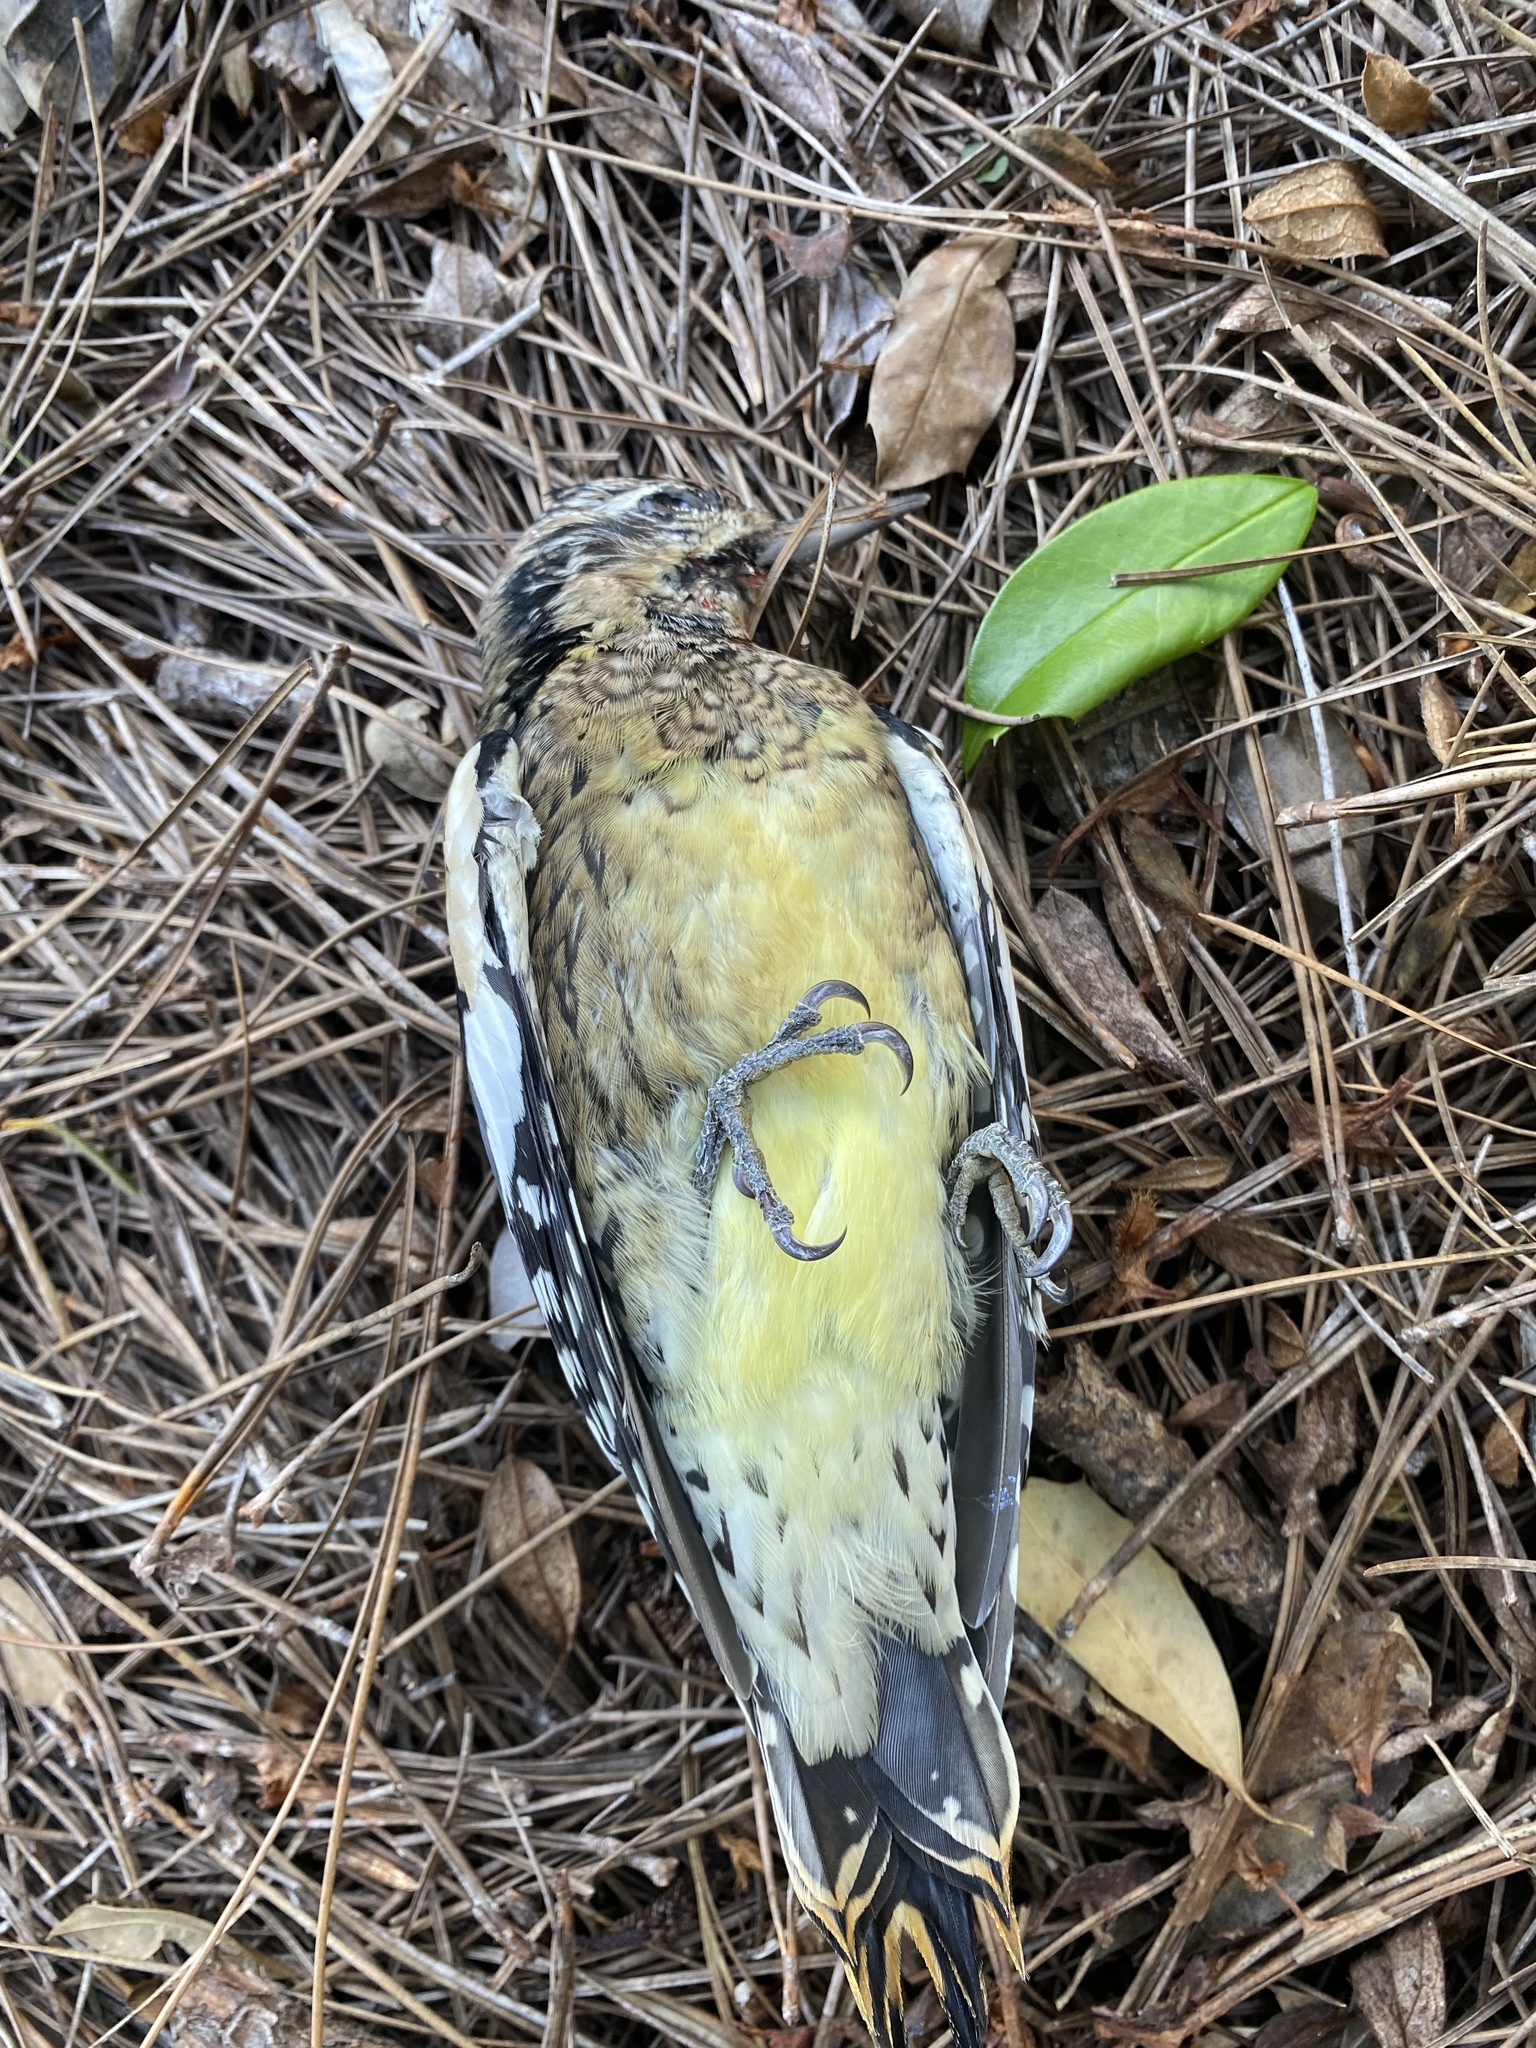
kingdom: Animalia
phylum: Chordata
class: Aves
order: Piciformes
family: Picidae
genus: Sphyrapicus
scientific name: Sphyrapicus varius
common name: Yellow-bellied sapsucker
